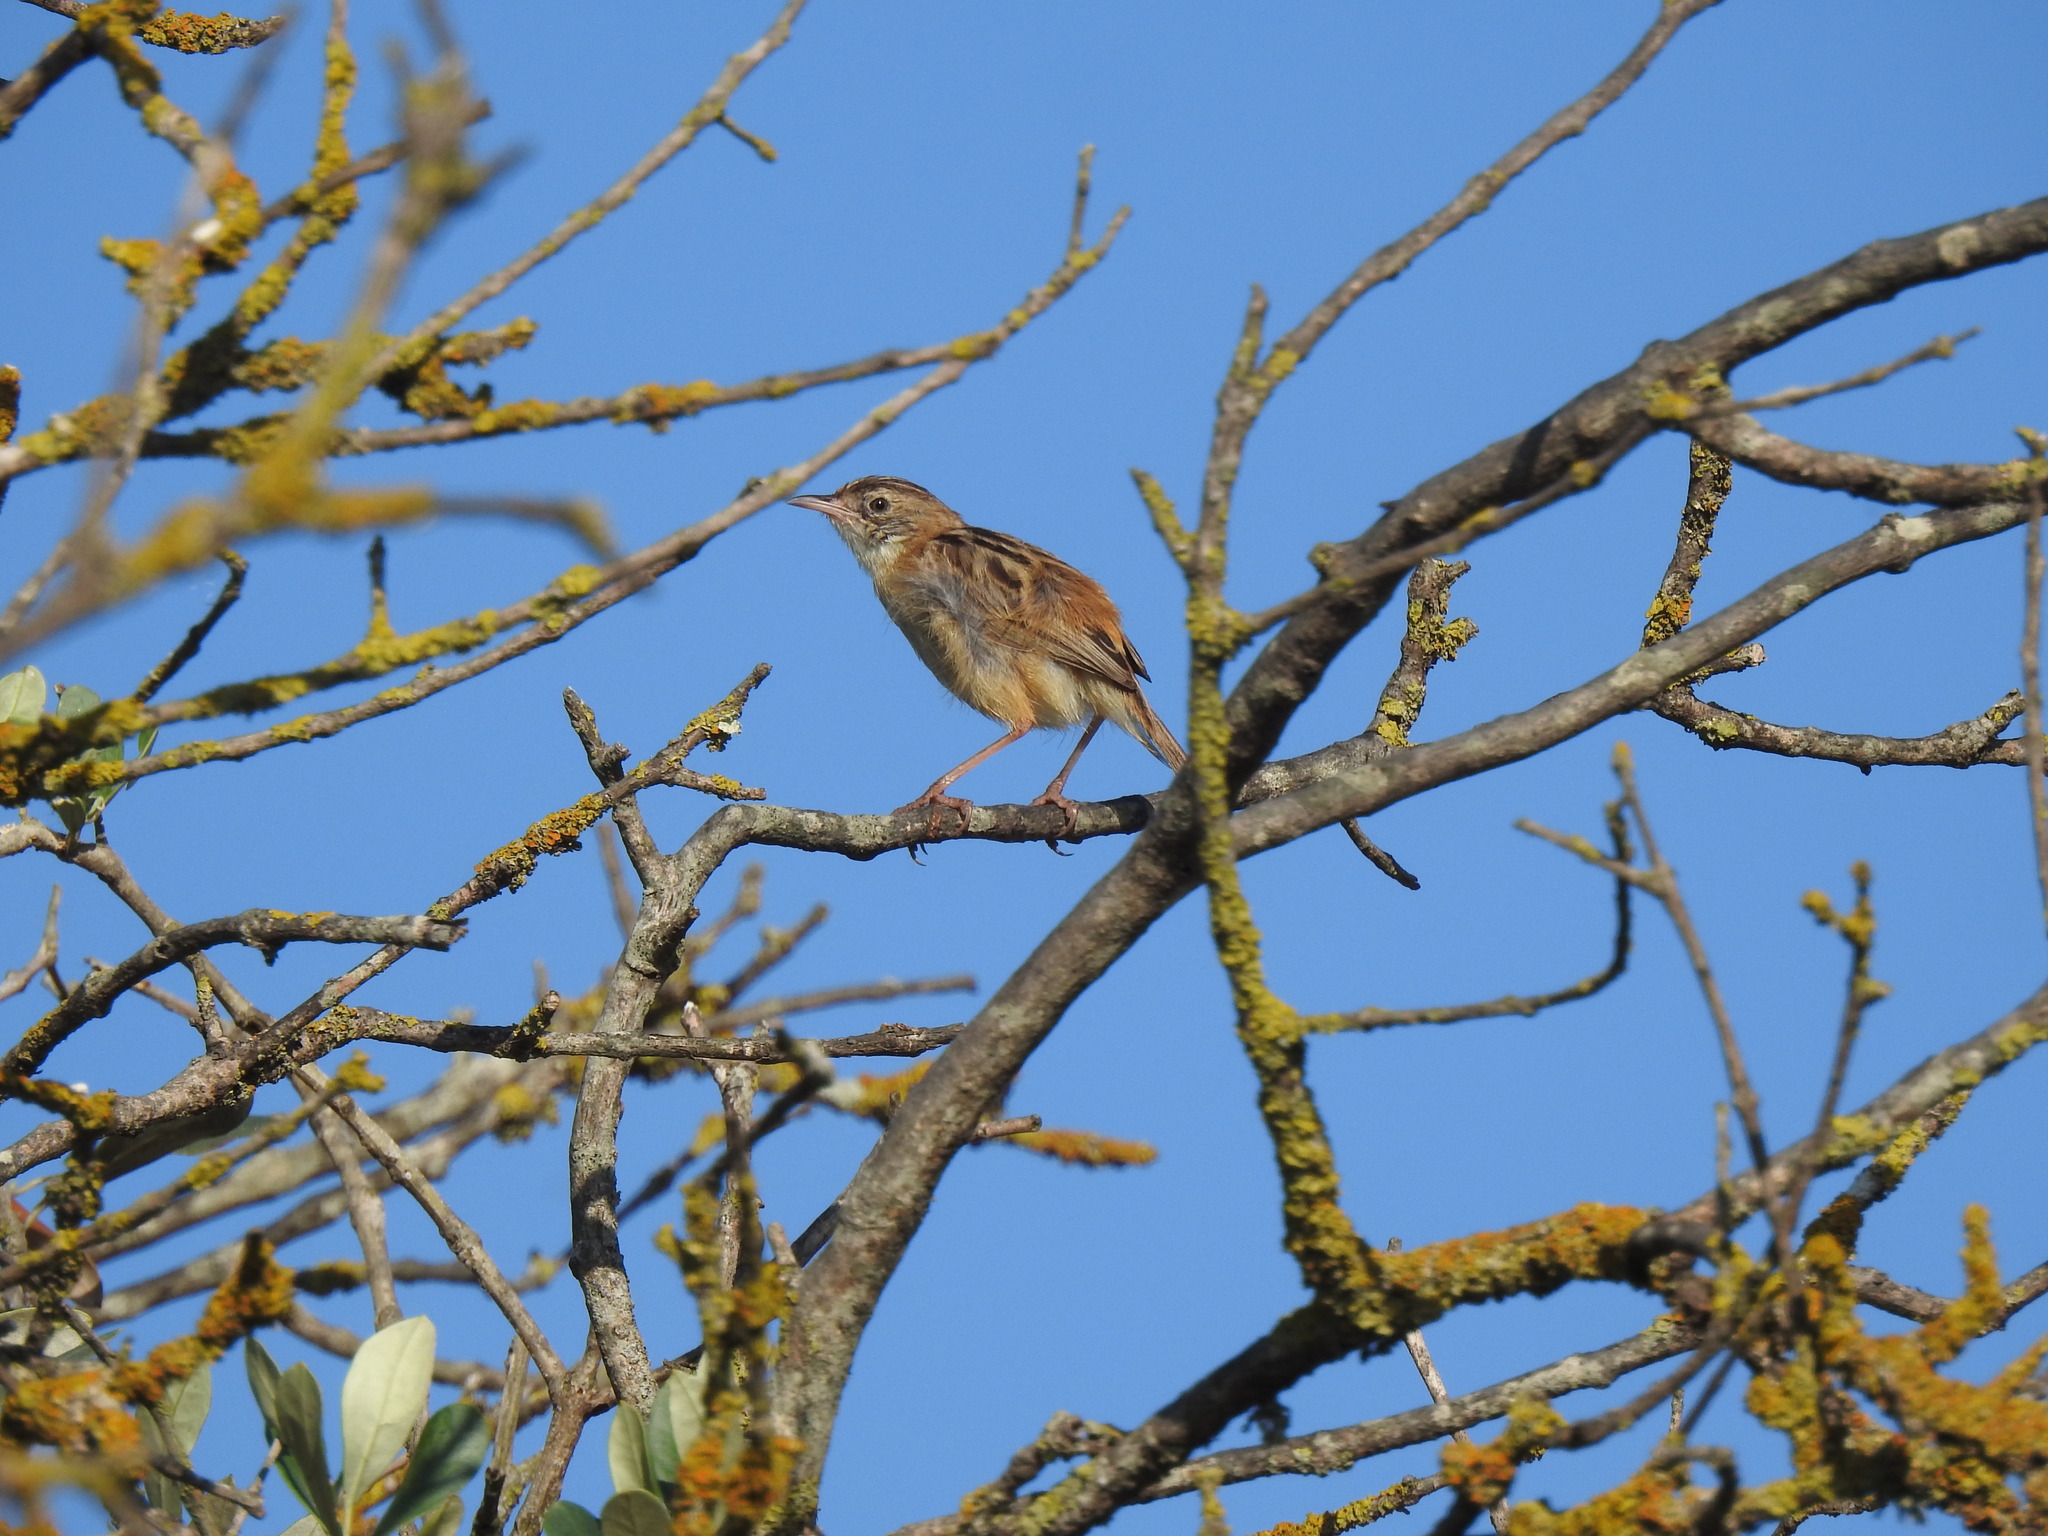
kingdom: Animalia
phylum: Chordata
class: Aves
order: Passeriformes
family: Cisticolidae
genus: Cisticola
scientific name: Cisticola juncidis
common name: Zitting cisticola
